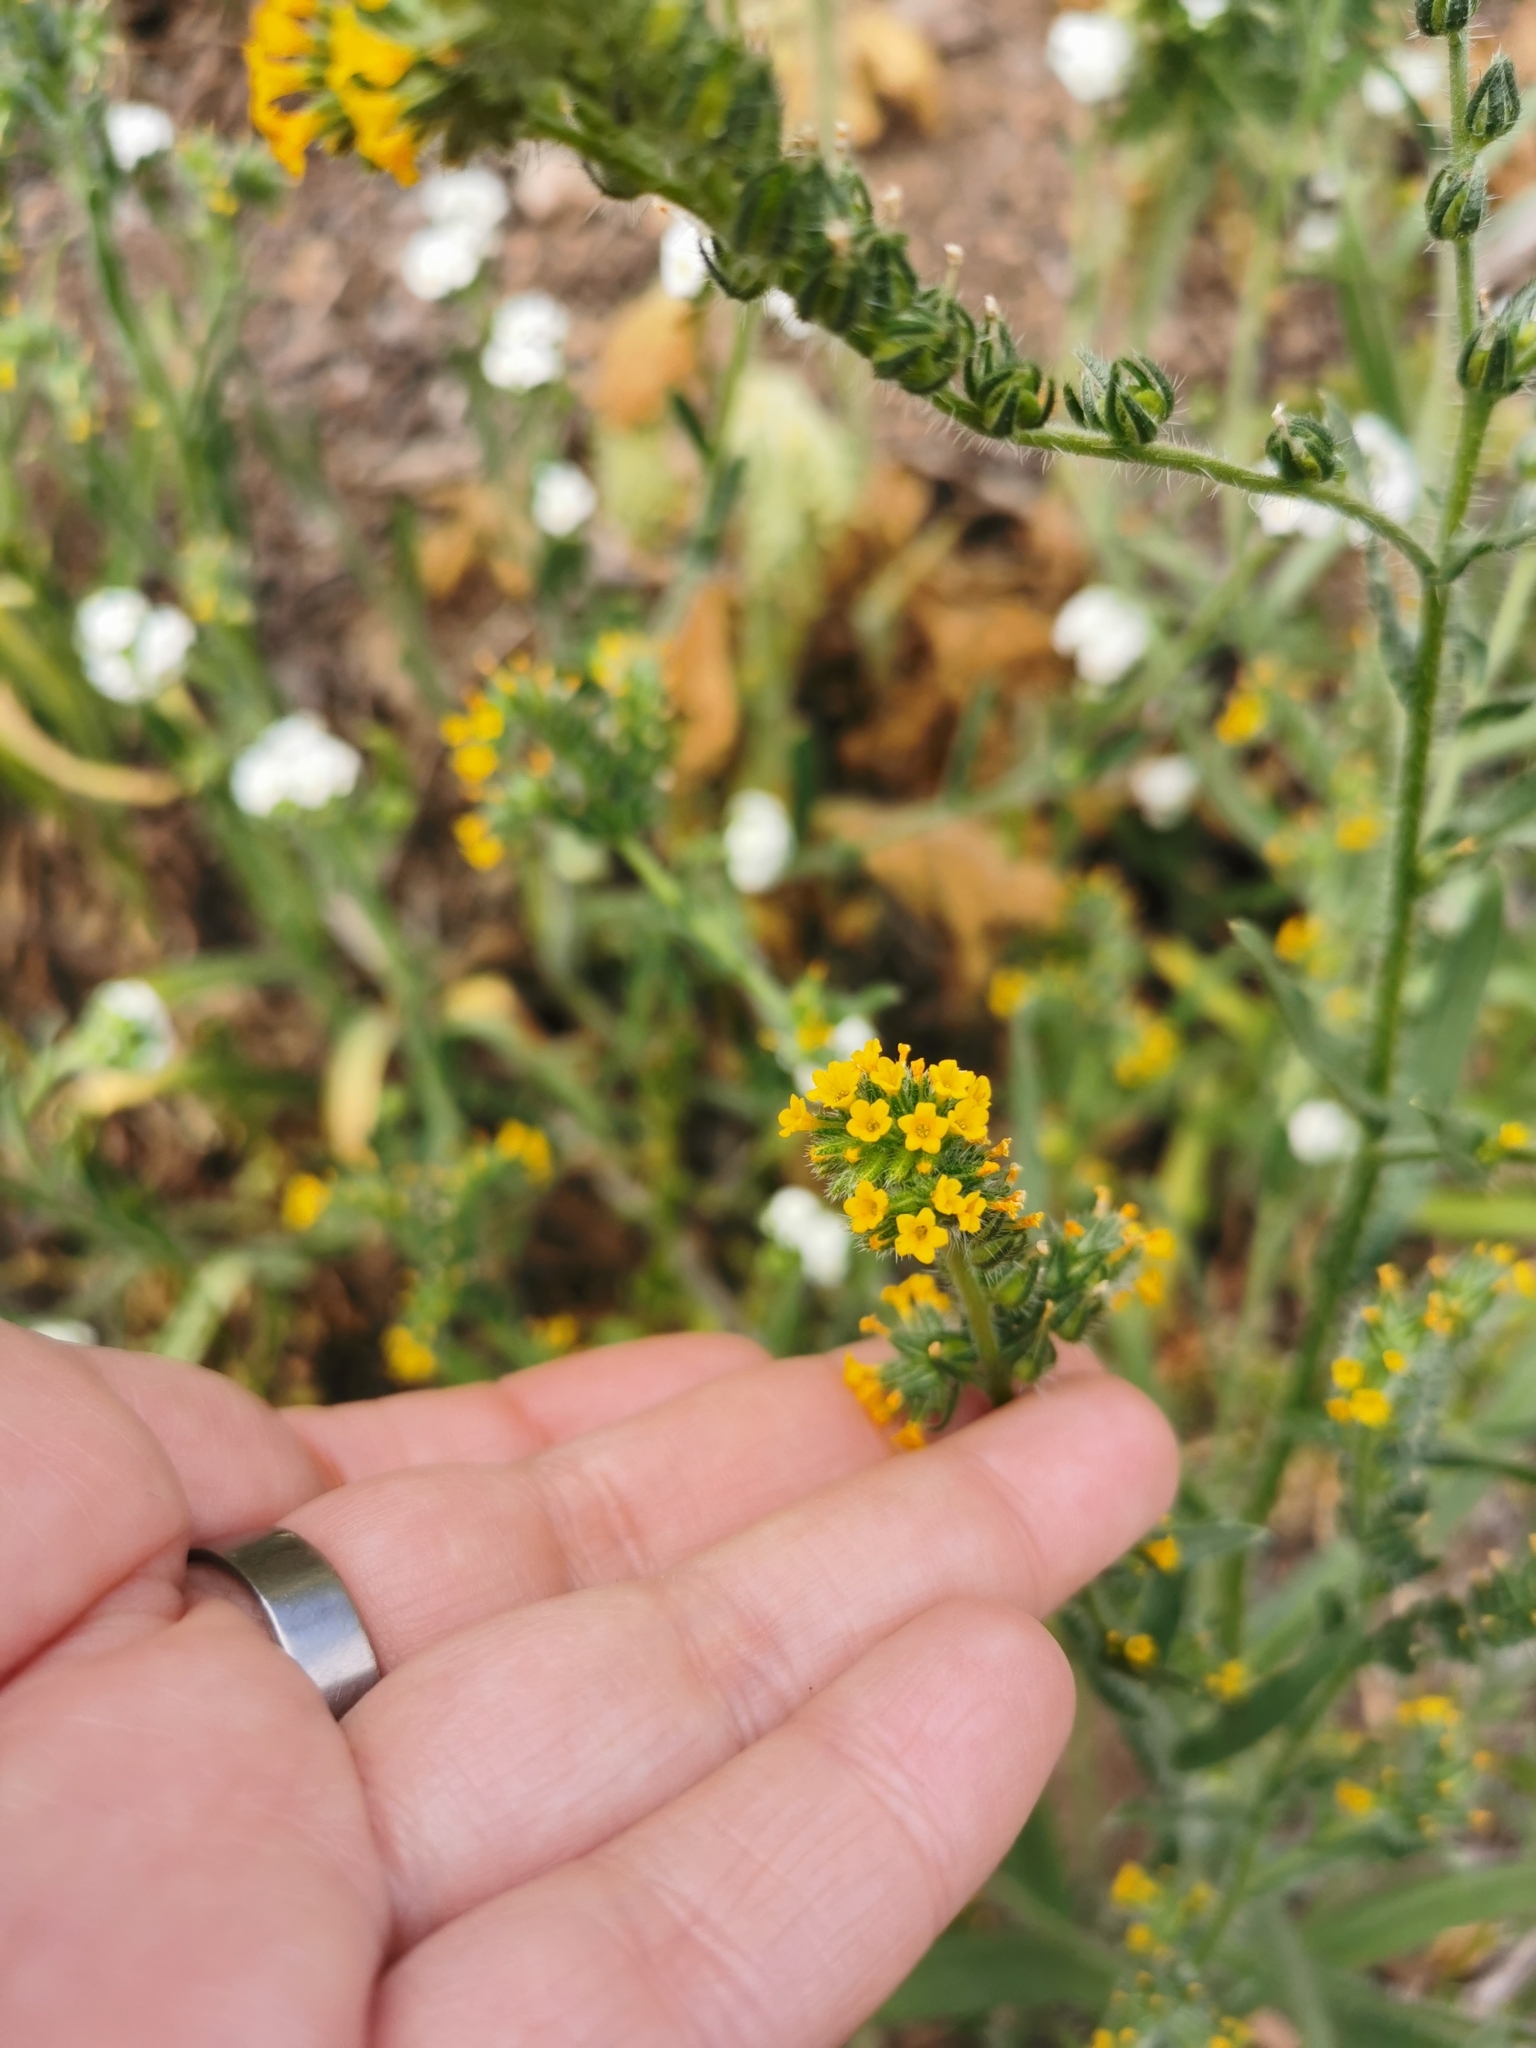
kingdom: Plantae
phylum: Tracheophyta
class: Magnoliopsida
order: Boraginales
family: Boraginaceae
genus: Amsinckia
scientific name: Amsinckia calycina
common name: Hairy fiddleneck
